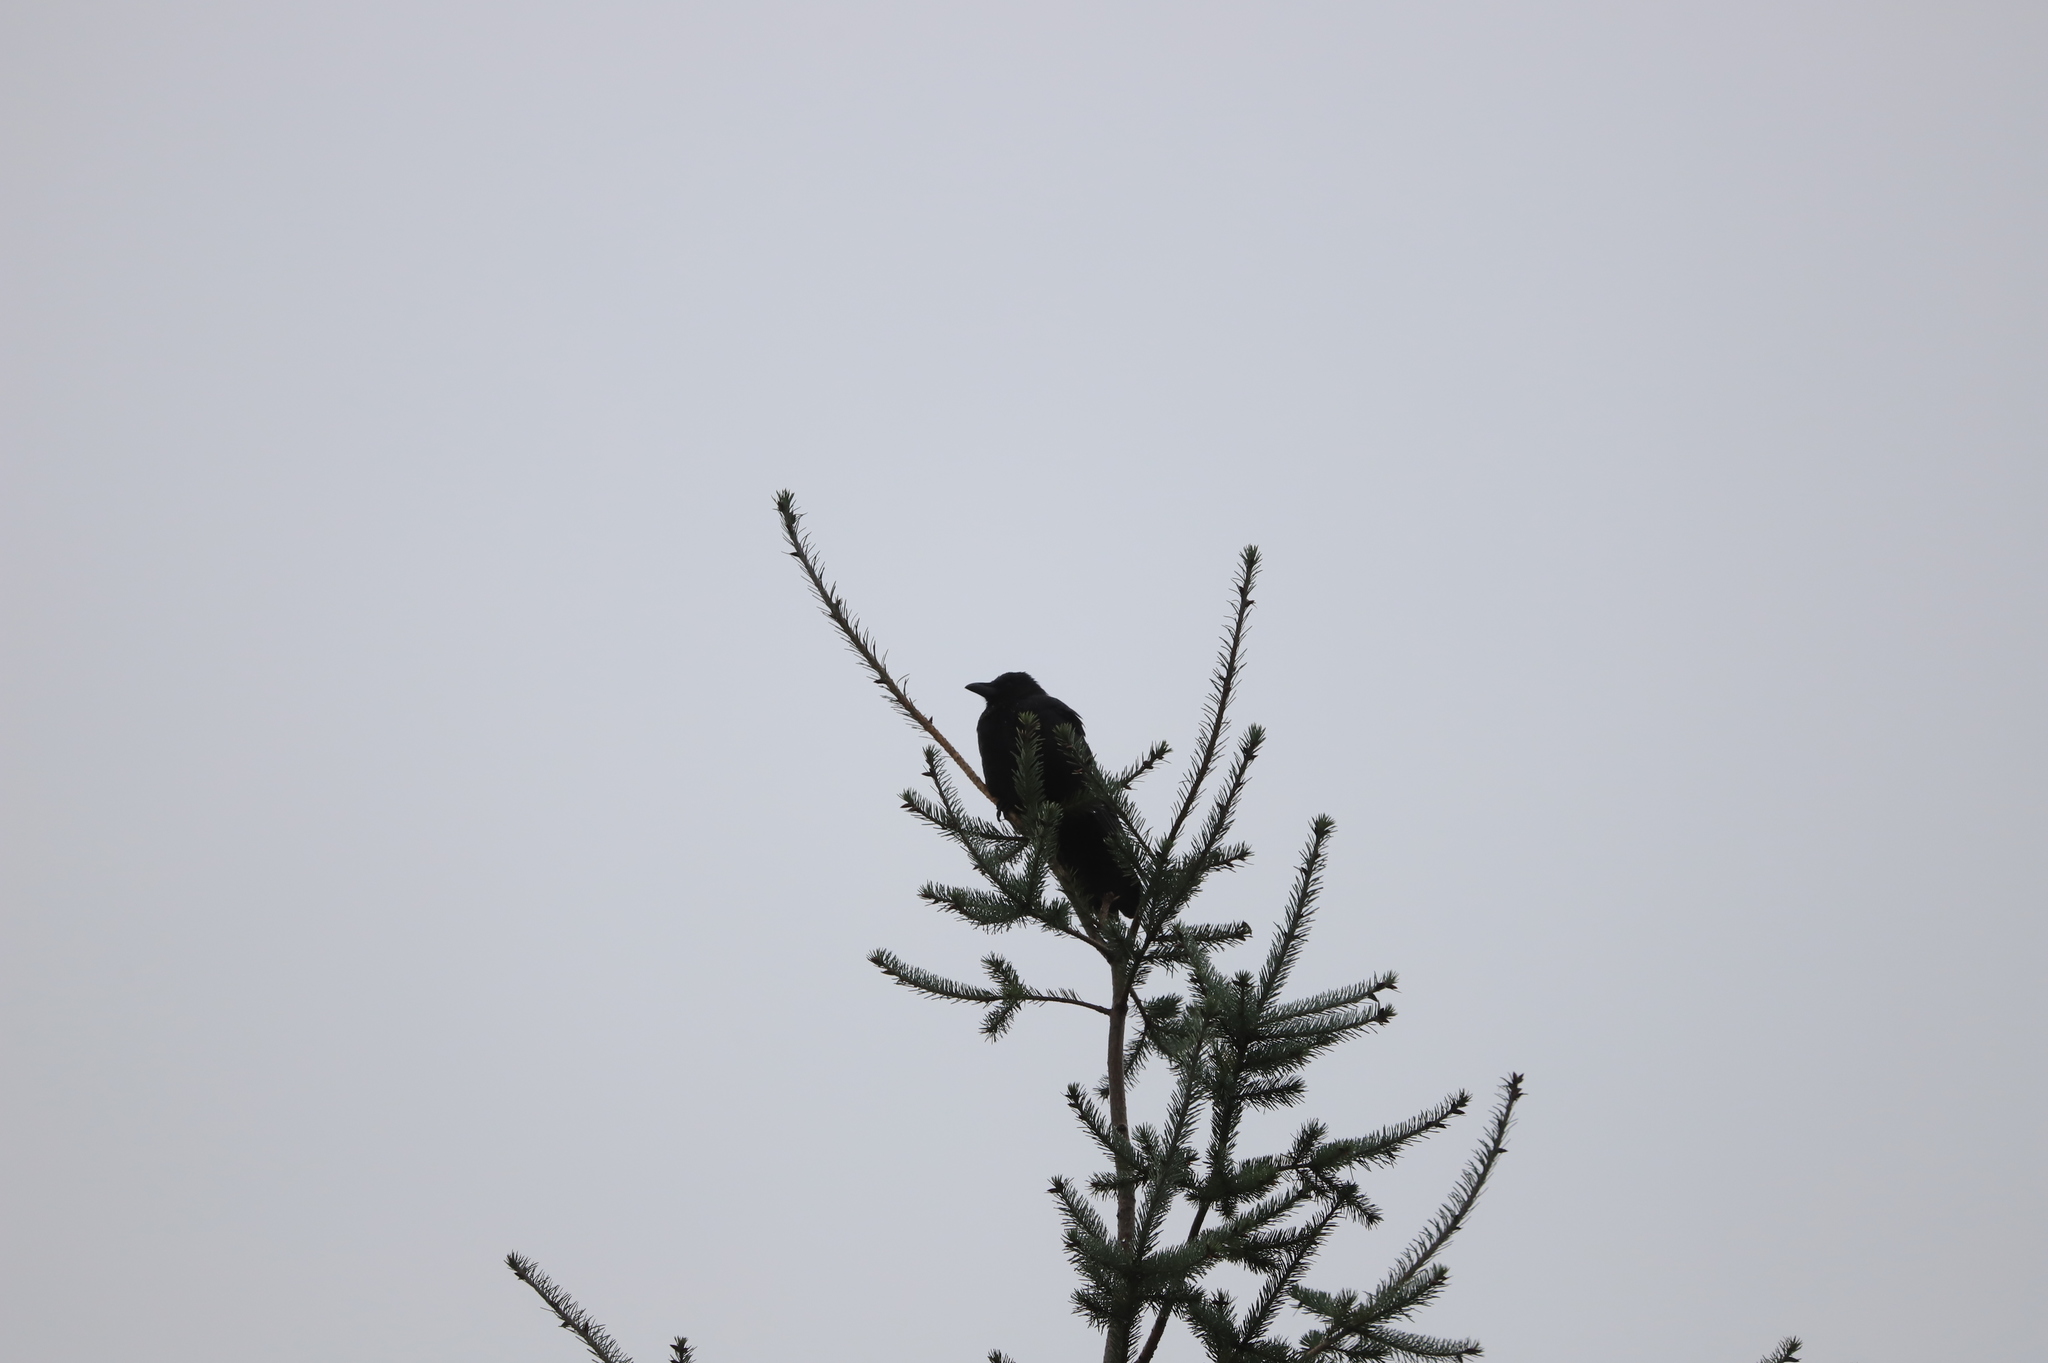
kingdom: Animalia
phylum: Chordata
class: Aves
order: Passeriformes
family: Corvidae
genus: Corvus
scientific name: Corvus brachyrhynchos
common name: American crow
